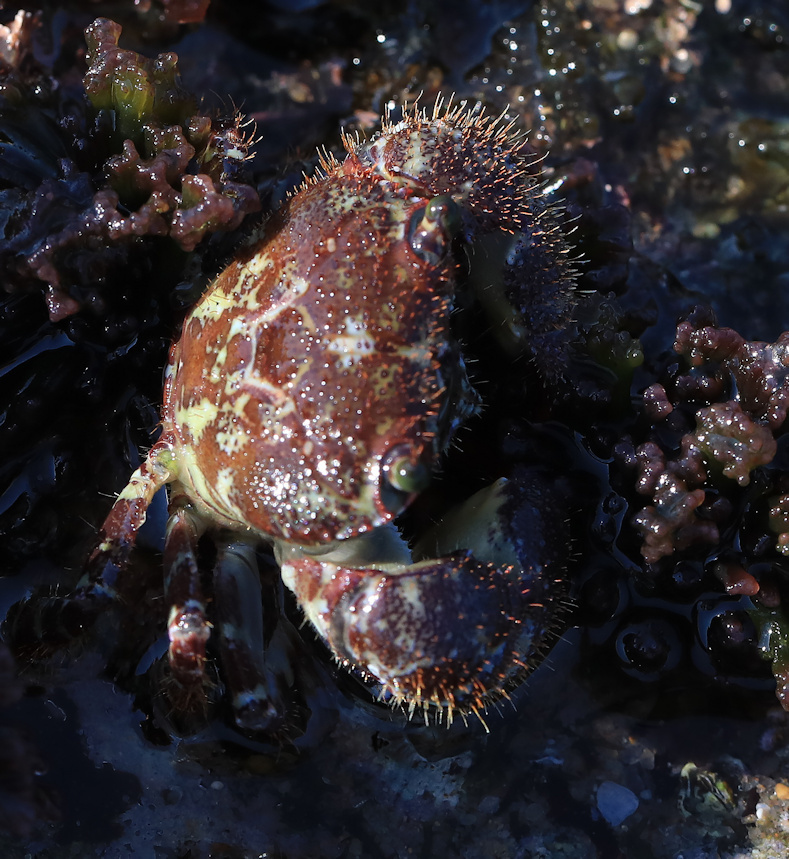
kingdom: Animalia
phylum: Arthropoda
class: Malacostraca
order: Decapoda
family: Eriphiidae
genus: Eriphia
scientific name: Eriphia scabricula
